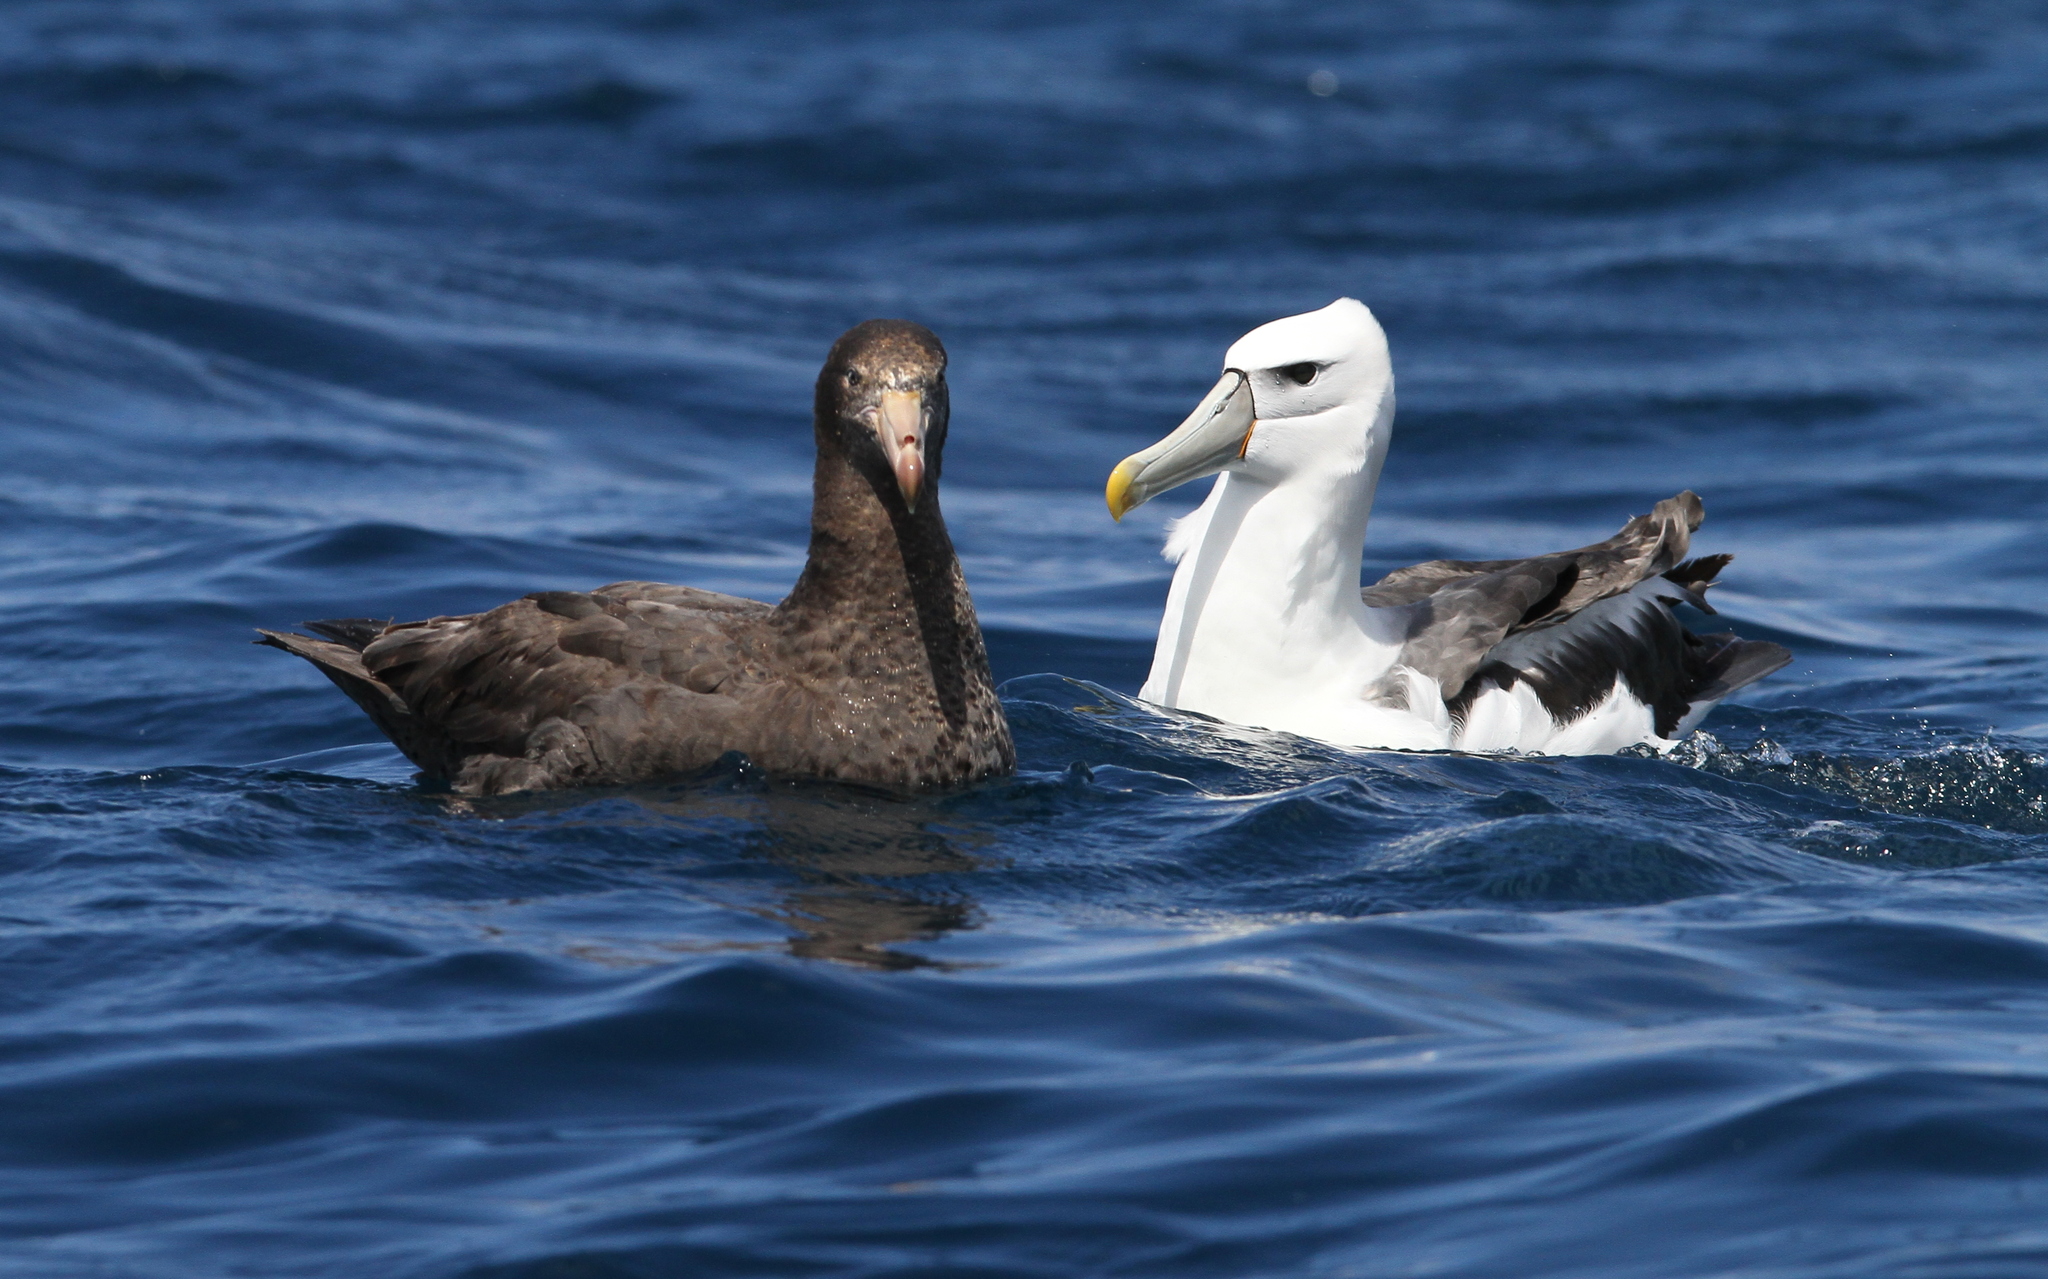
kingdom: Animalia
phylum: Chordata
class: Aves
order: Procellariiformes
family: Procellariidae
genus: Macronectes
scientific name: Macronectes halli
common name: Northern giant petrel
